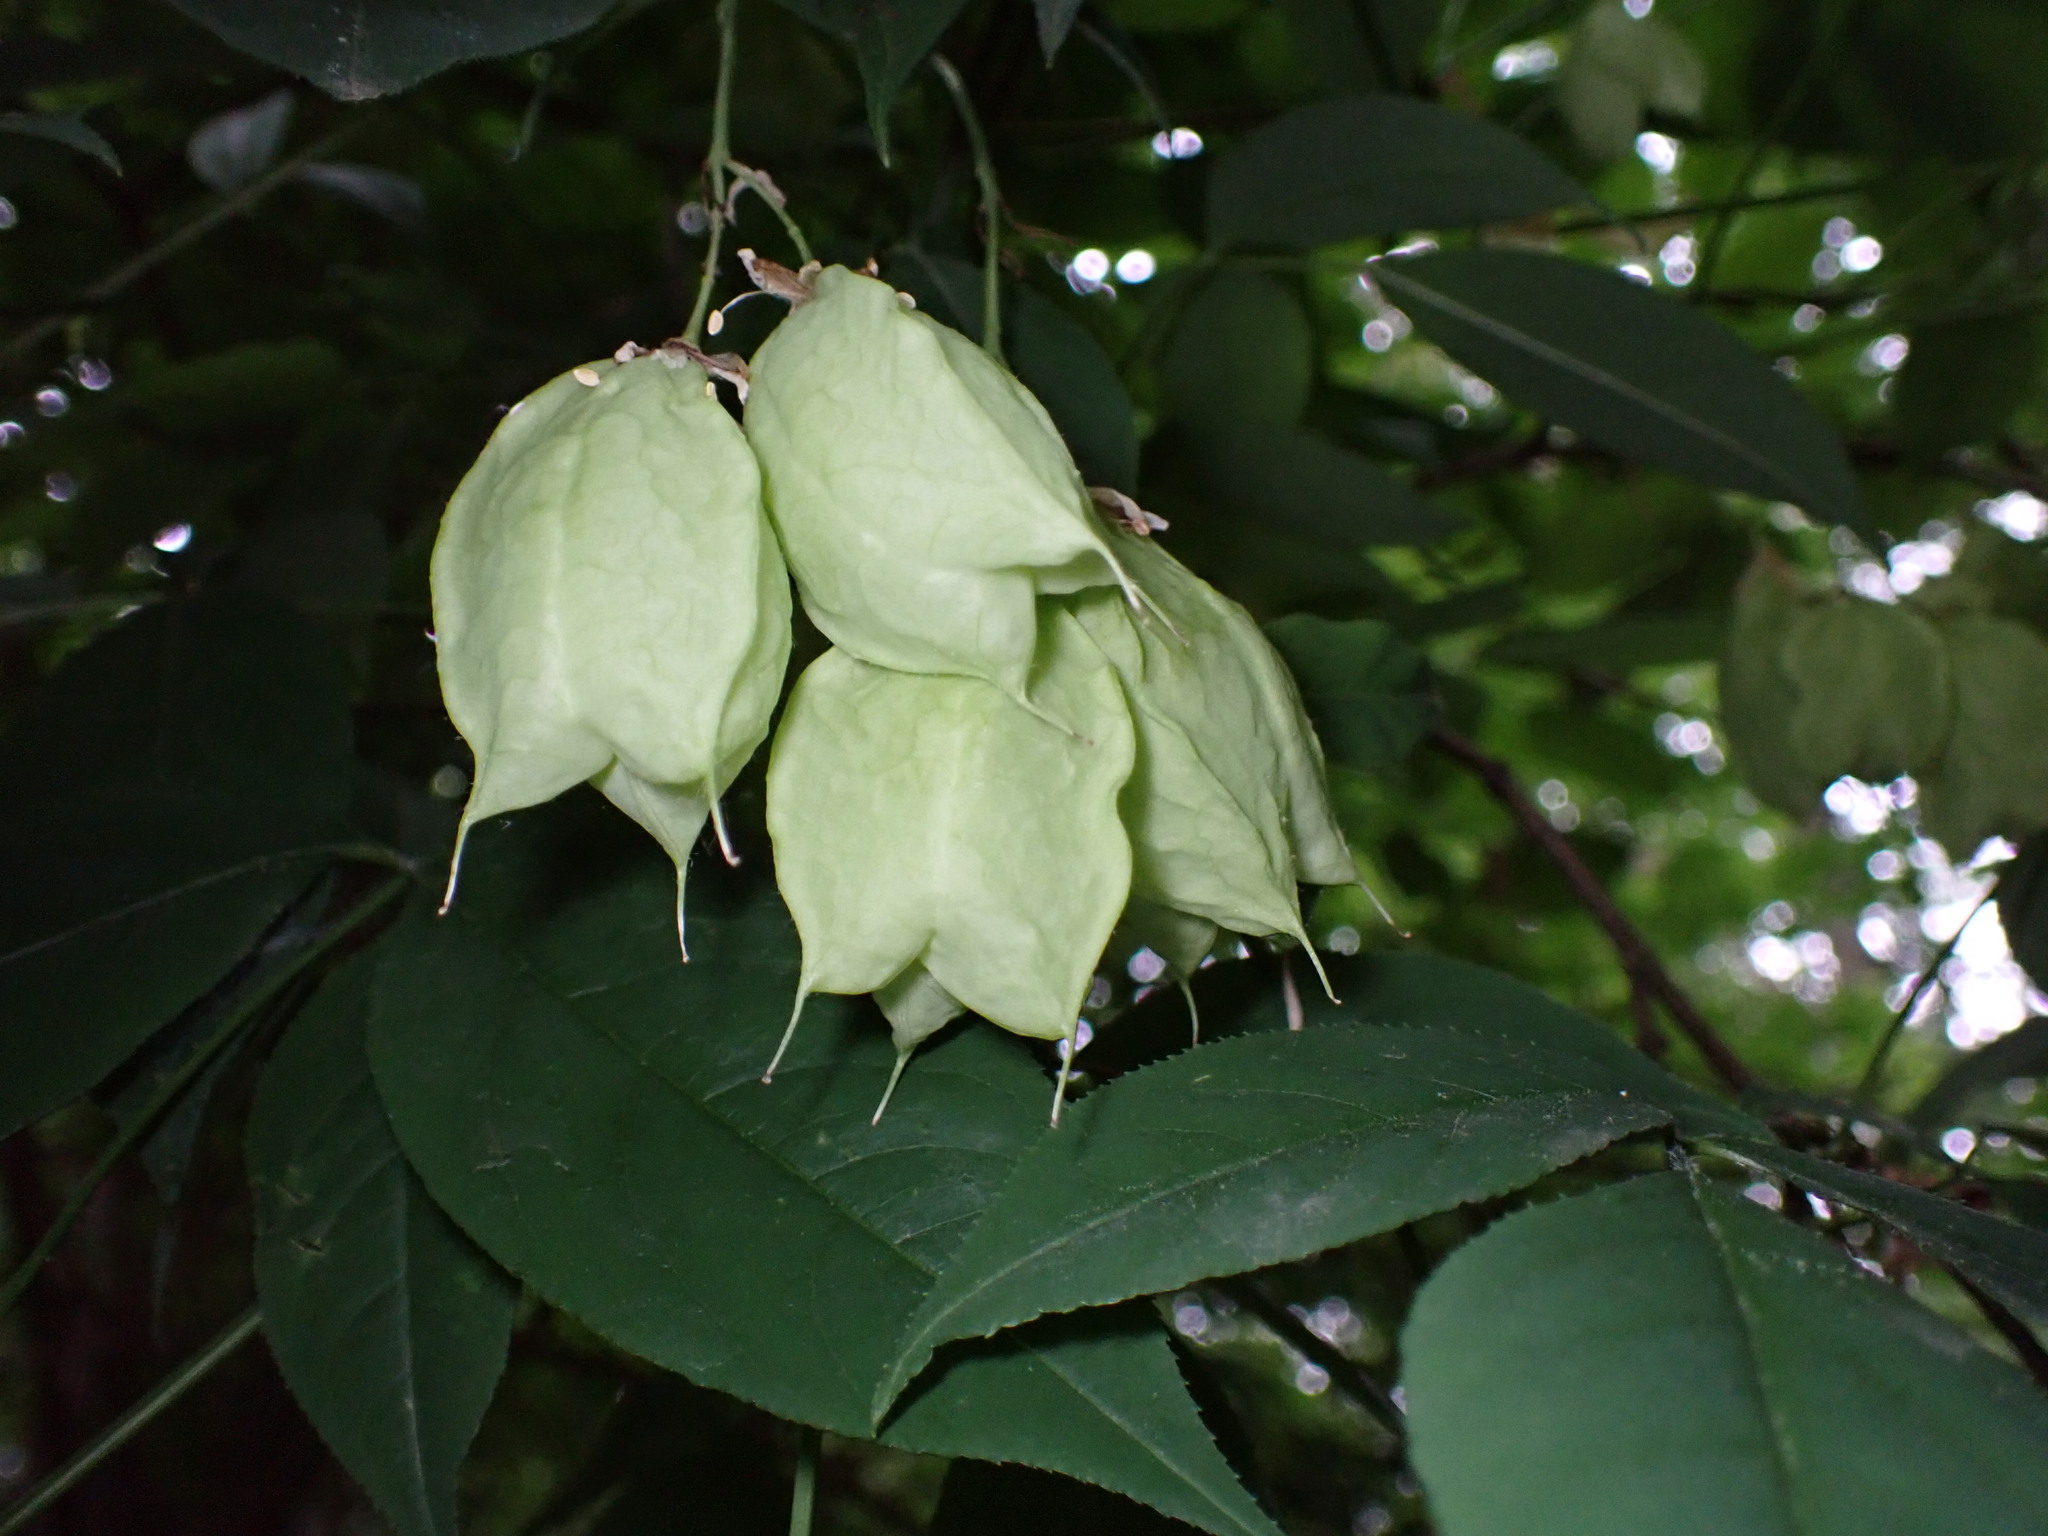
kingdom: Plantae
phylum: Tracheophyta
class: Magnoliopsida
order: Crossosomatales
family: Staphyleaceae
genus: Staphylea
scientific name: Staphylea trifolia
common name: American bladdernut
